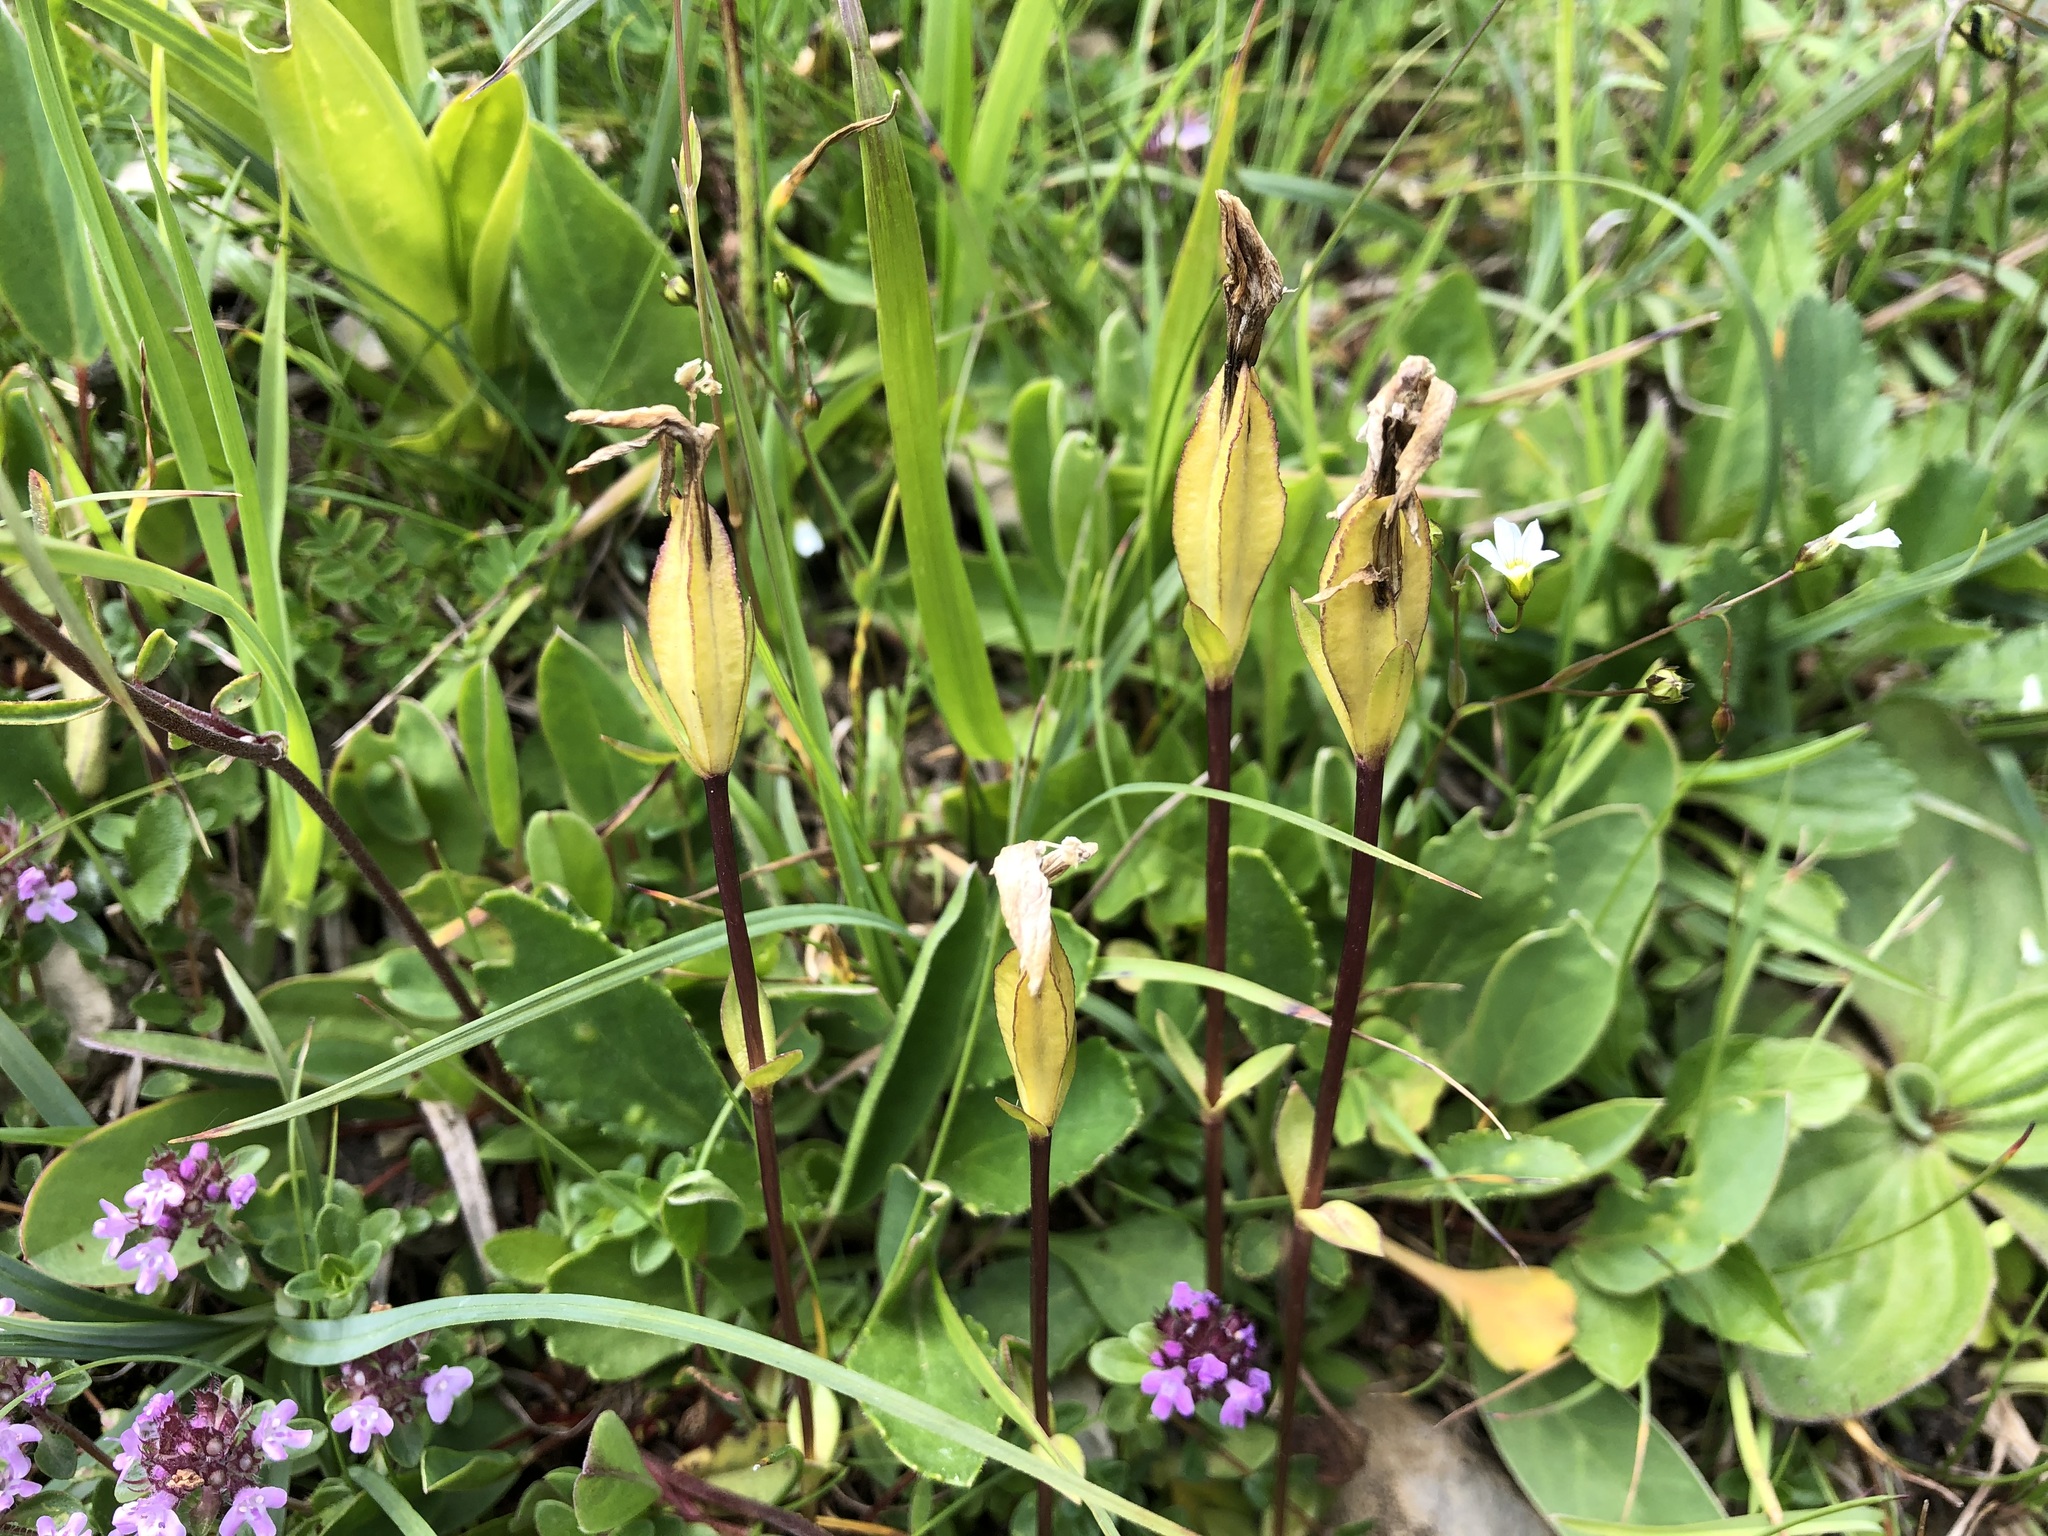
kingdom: Plantae
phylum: Tracheophyta
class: Magnoliopsida
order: Gentianales
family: Gentianaceae
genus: Gentiana
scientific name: Gentiana verna
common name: Spring gentian
